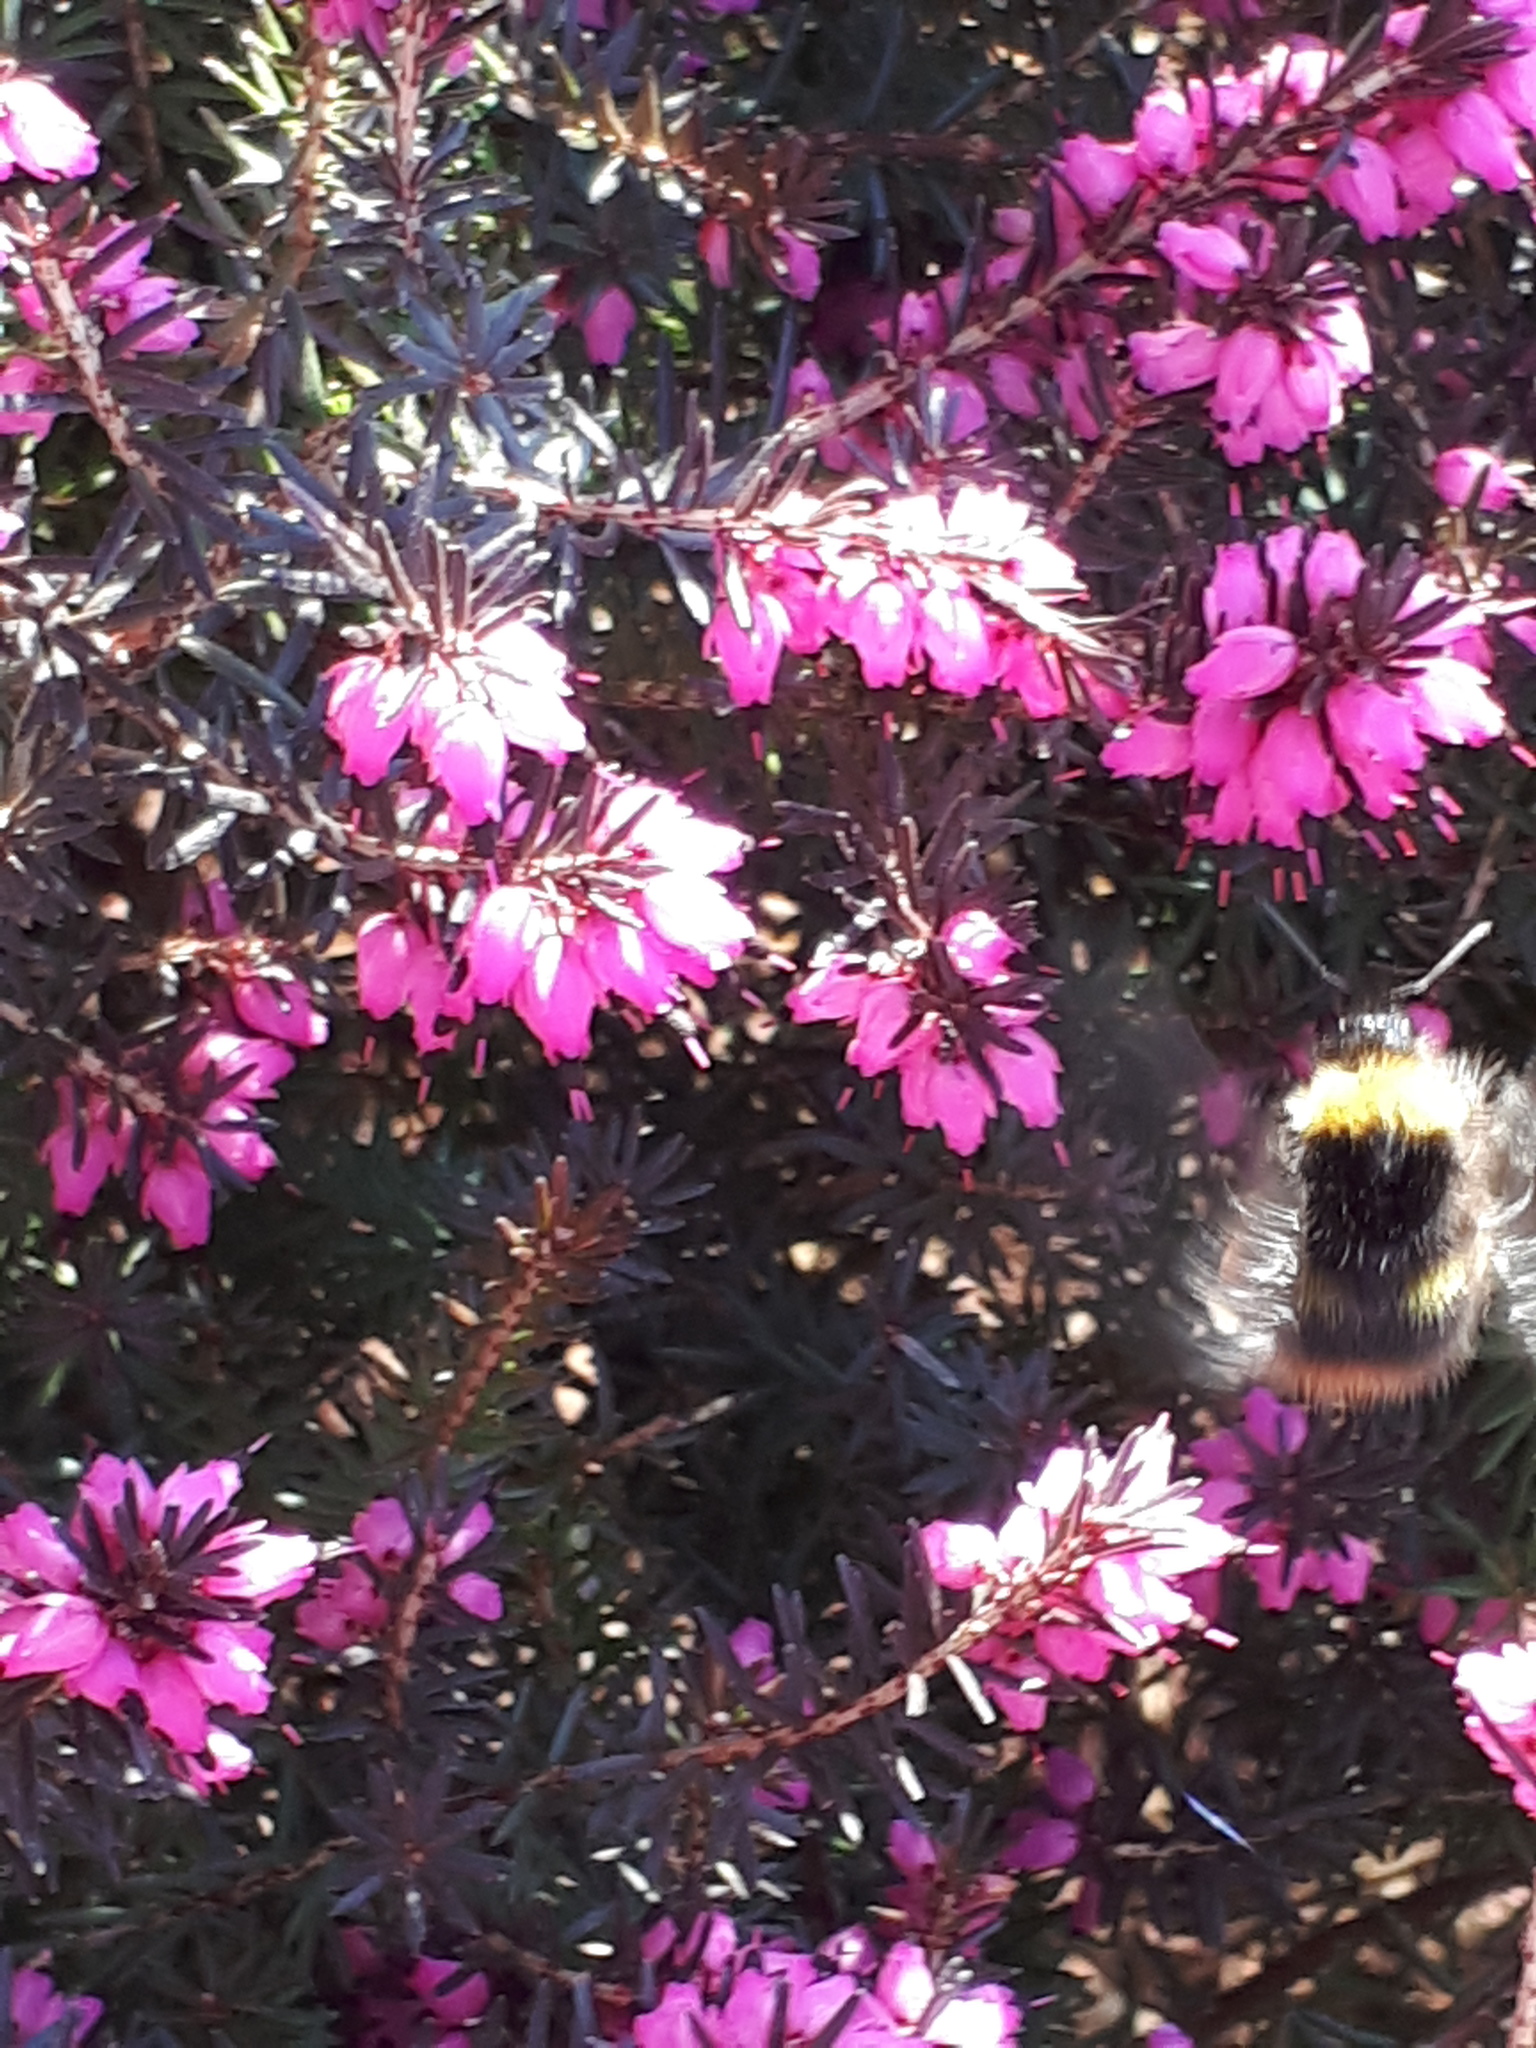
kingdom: Animalia
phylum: Arthropoda
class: Insecta
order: Hymenoptera
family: Apidae
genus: Bombus
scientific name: Bombus pratorum
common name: Early humble-bee
